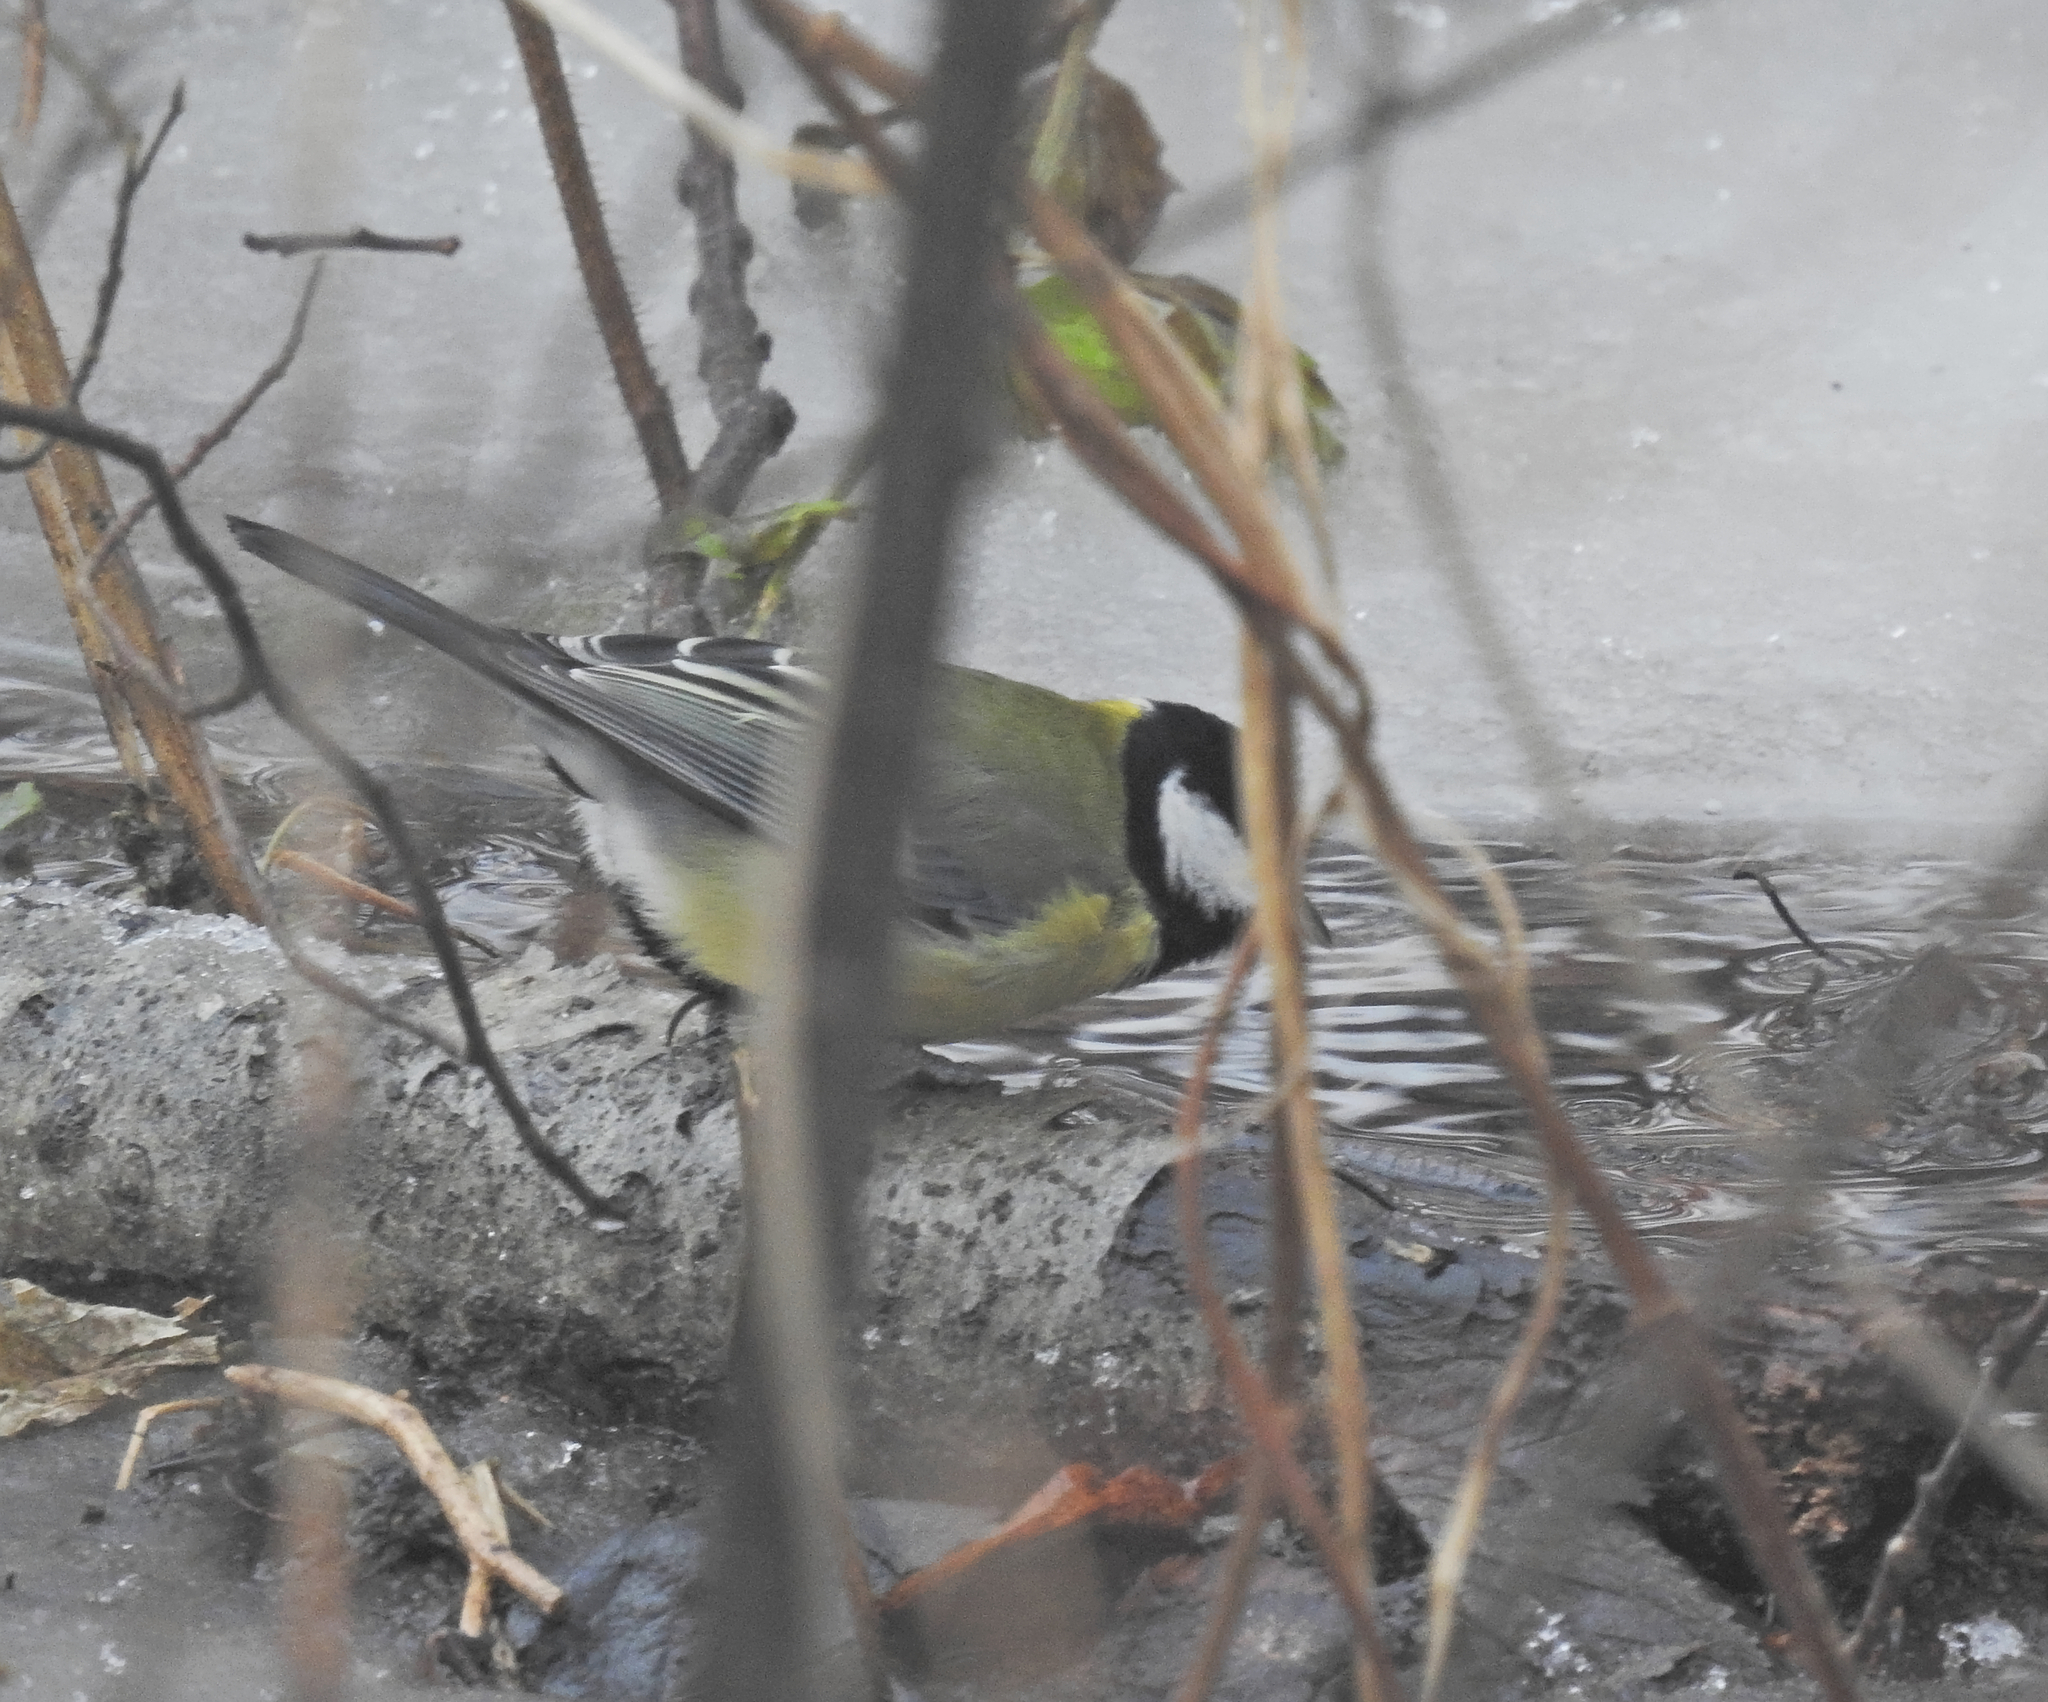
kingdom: Animalia
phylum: Chordata
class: Aves
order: Passeriformes
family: Paridae
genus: Parus
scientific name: Parus major
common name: Great tit
